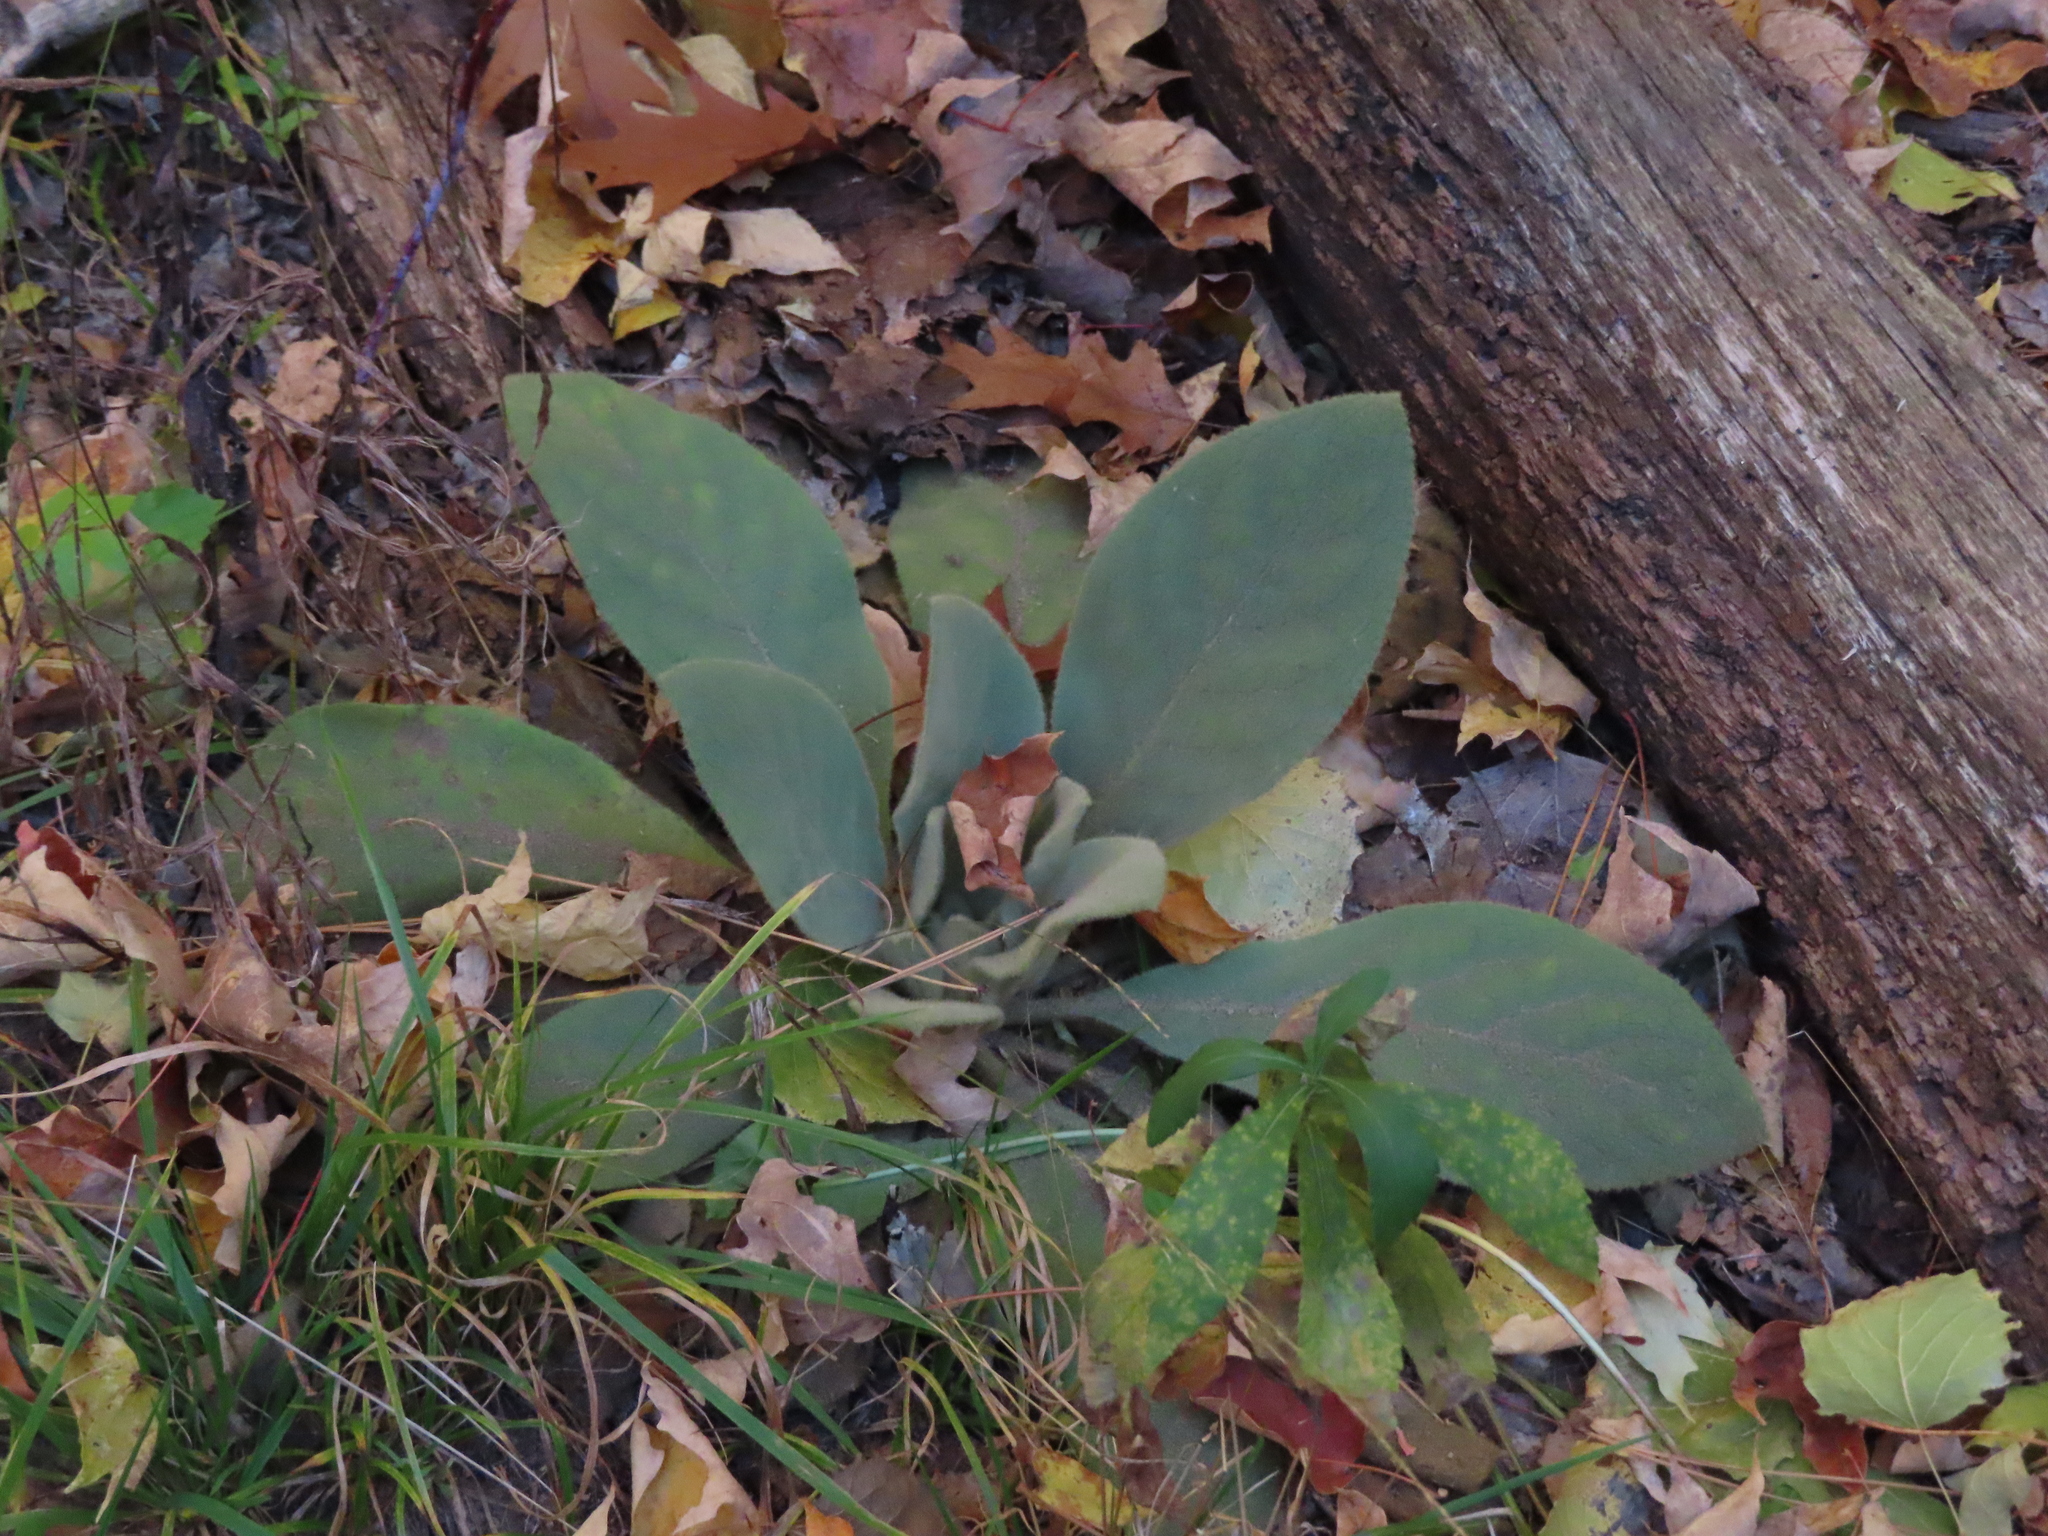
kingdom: Plantae
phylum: Tracheophyta
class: Magnoliopsida
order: Lamiales
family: Scrophulariaceae
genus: Verbascum
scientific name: Verbascum thapsus
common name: Common mullein
